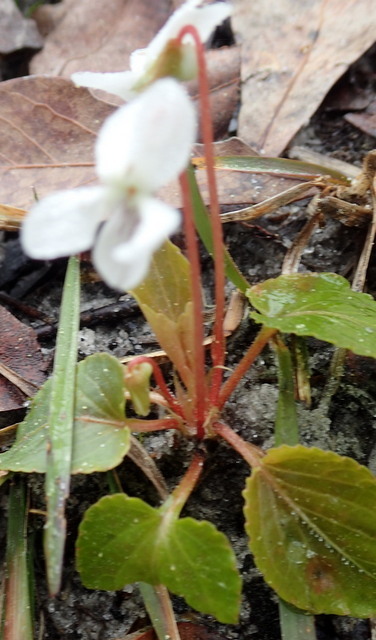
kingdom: Plantae
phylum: Tracheophyta
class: Magnoliopsida
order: Malpighiales
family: Violaceae
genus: Viola
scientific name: Viola primulifolia
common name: Primrose-leaf violet
